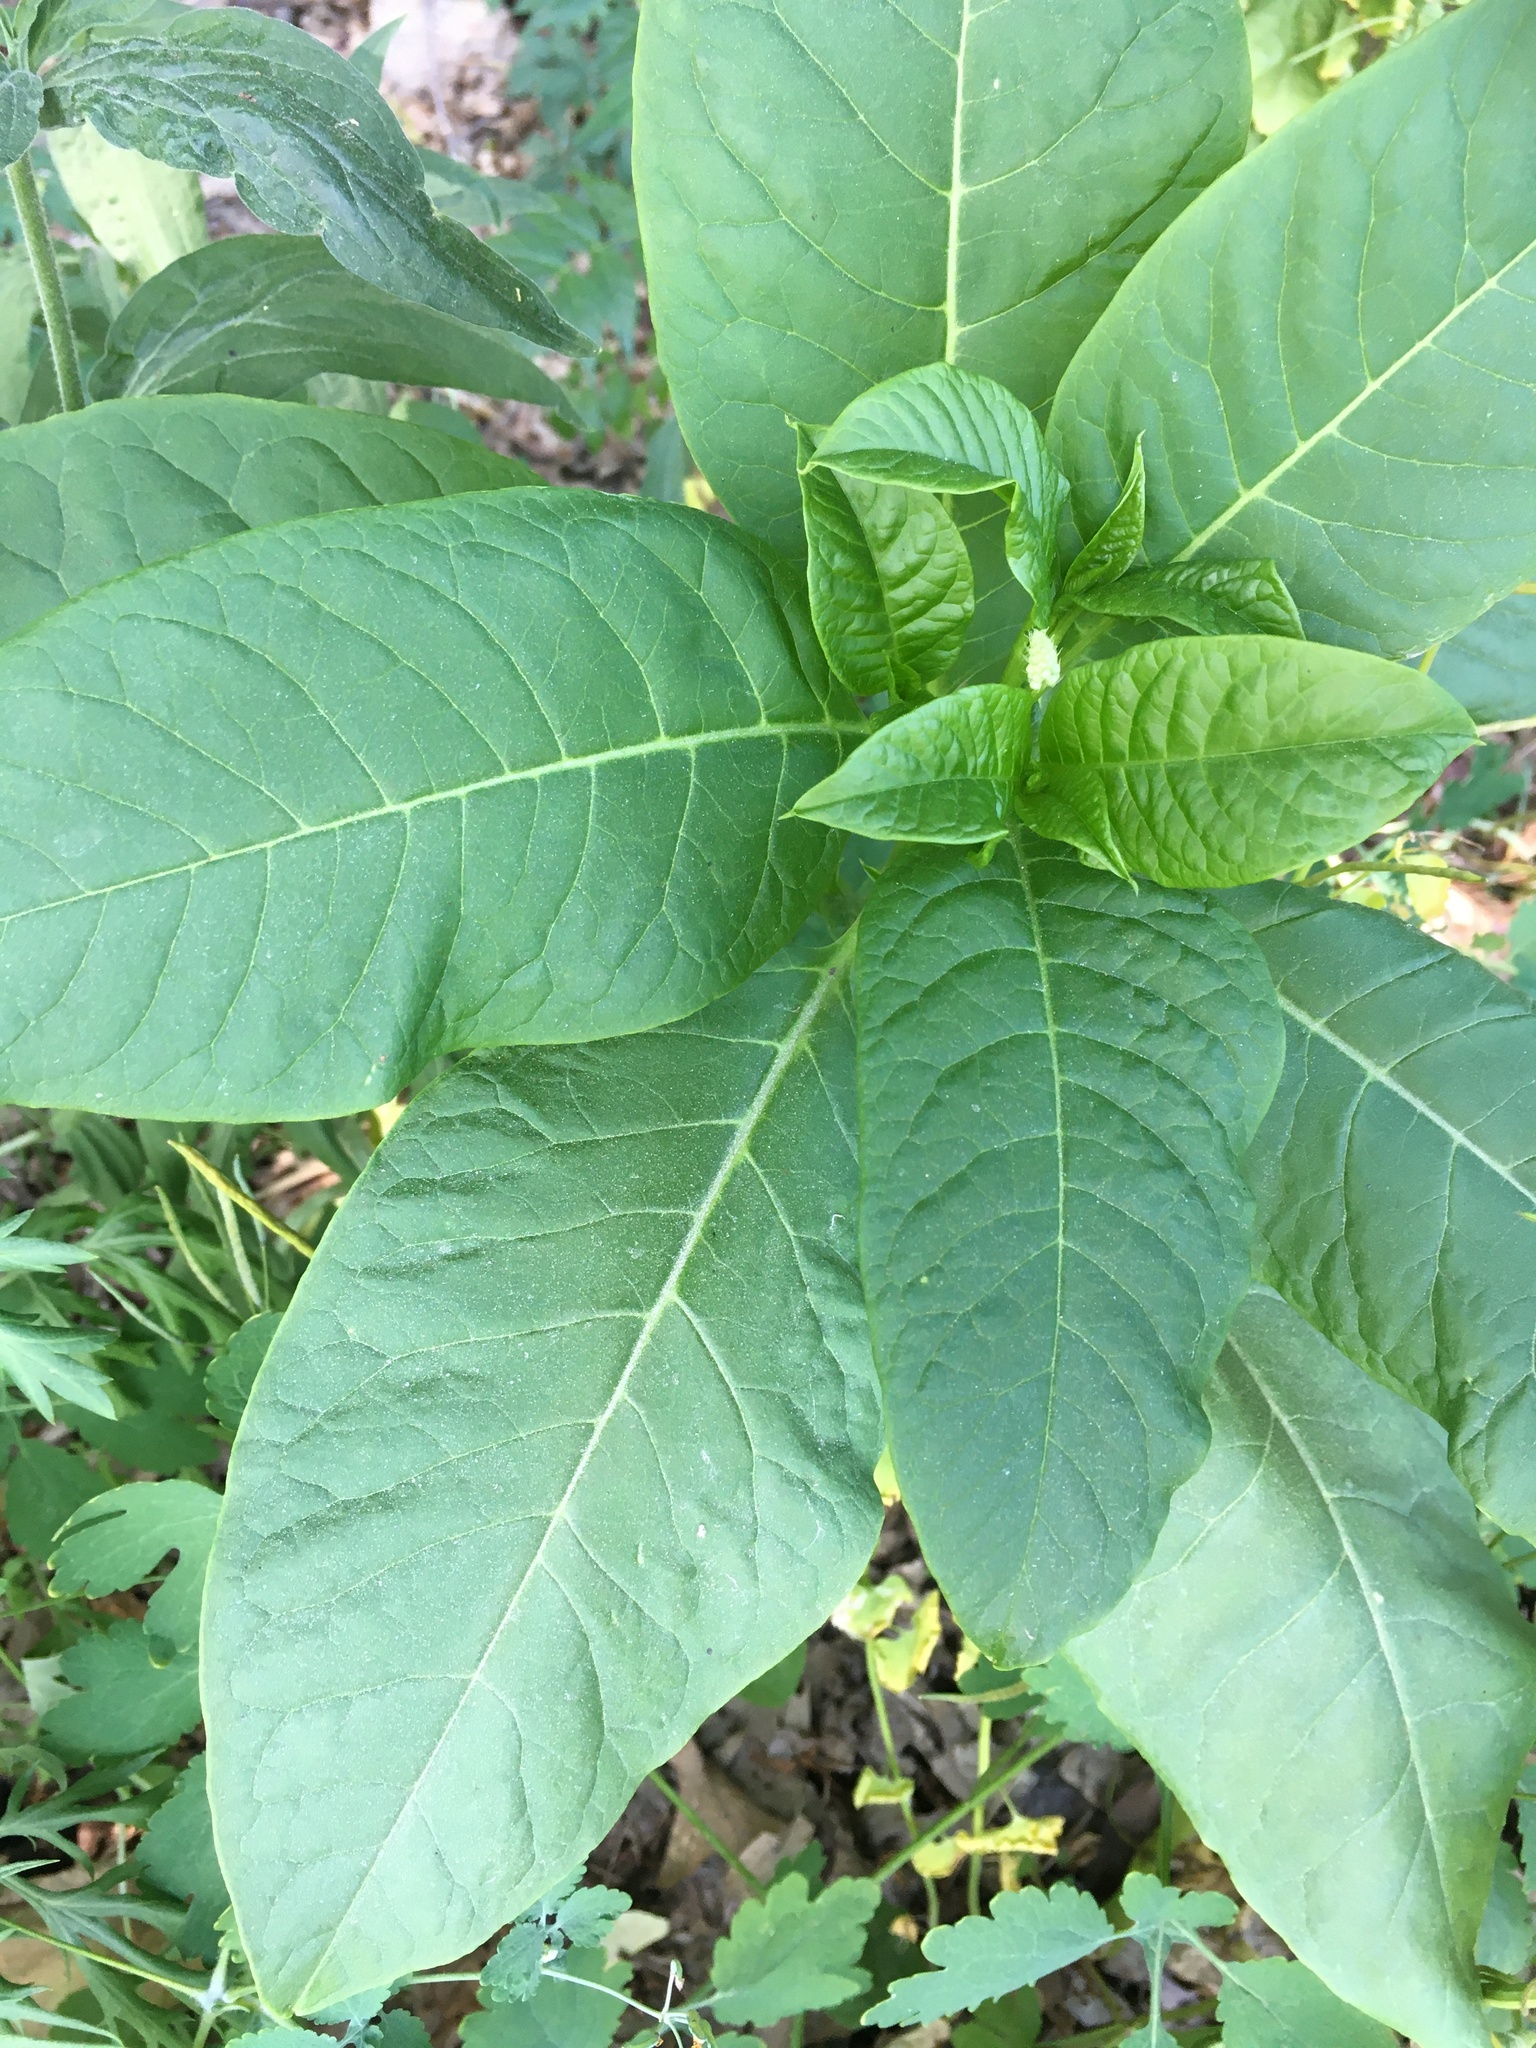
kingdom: Plantae
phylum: Tracheophyta
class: Magnoliopsida
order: Caryophyllales
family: Phytolaccaceae
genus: Phytolacca
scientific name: Phytolacca americana
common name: American pokeweed
